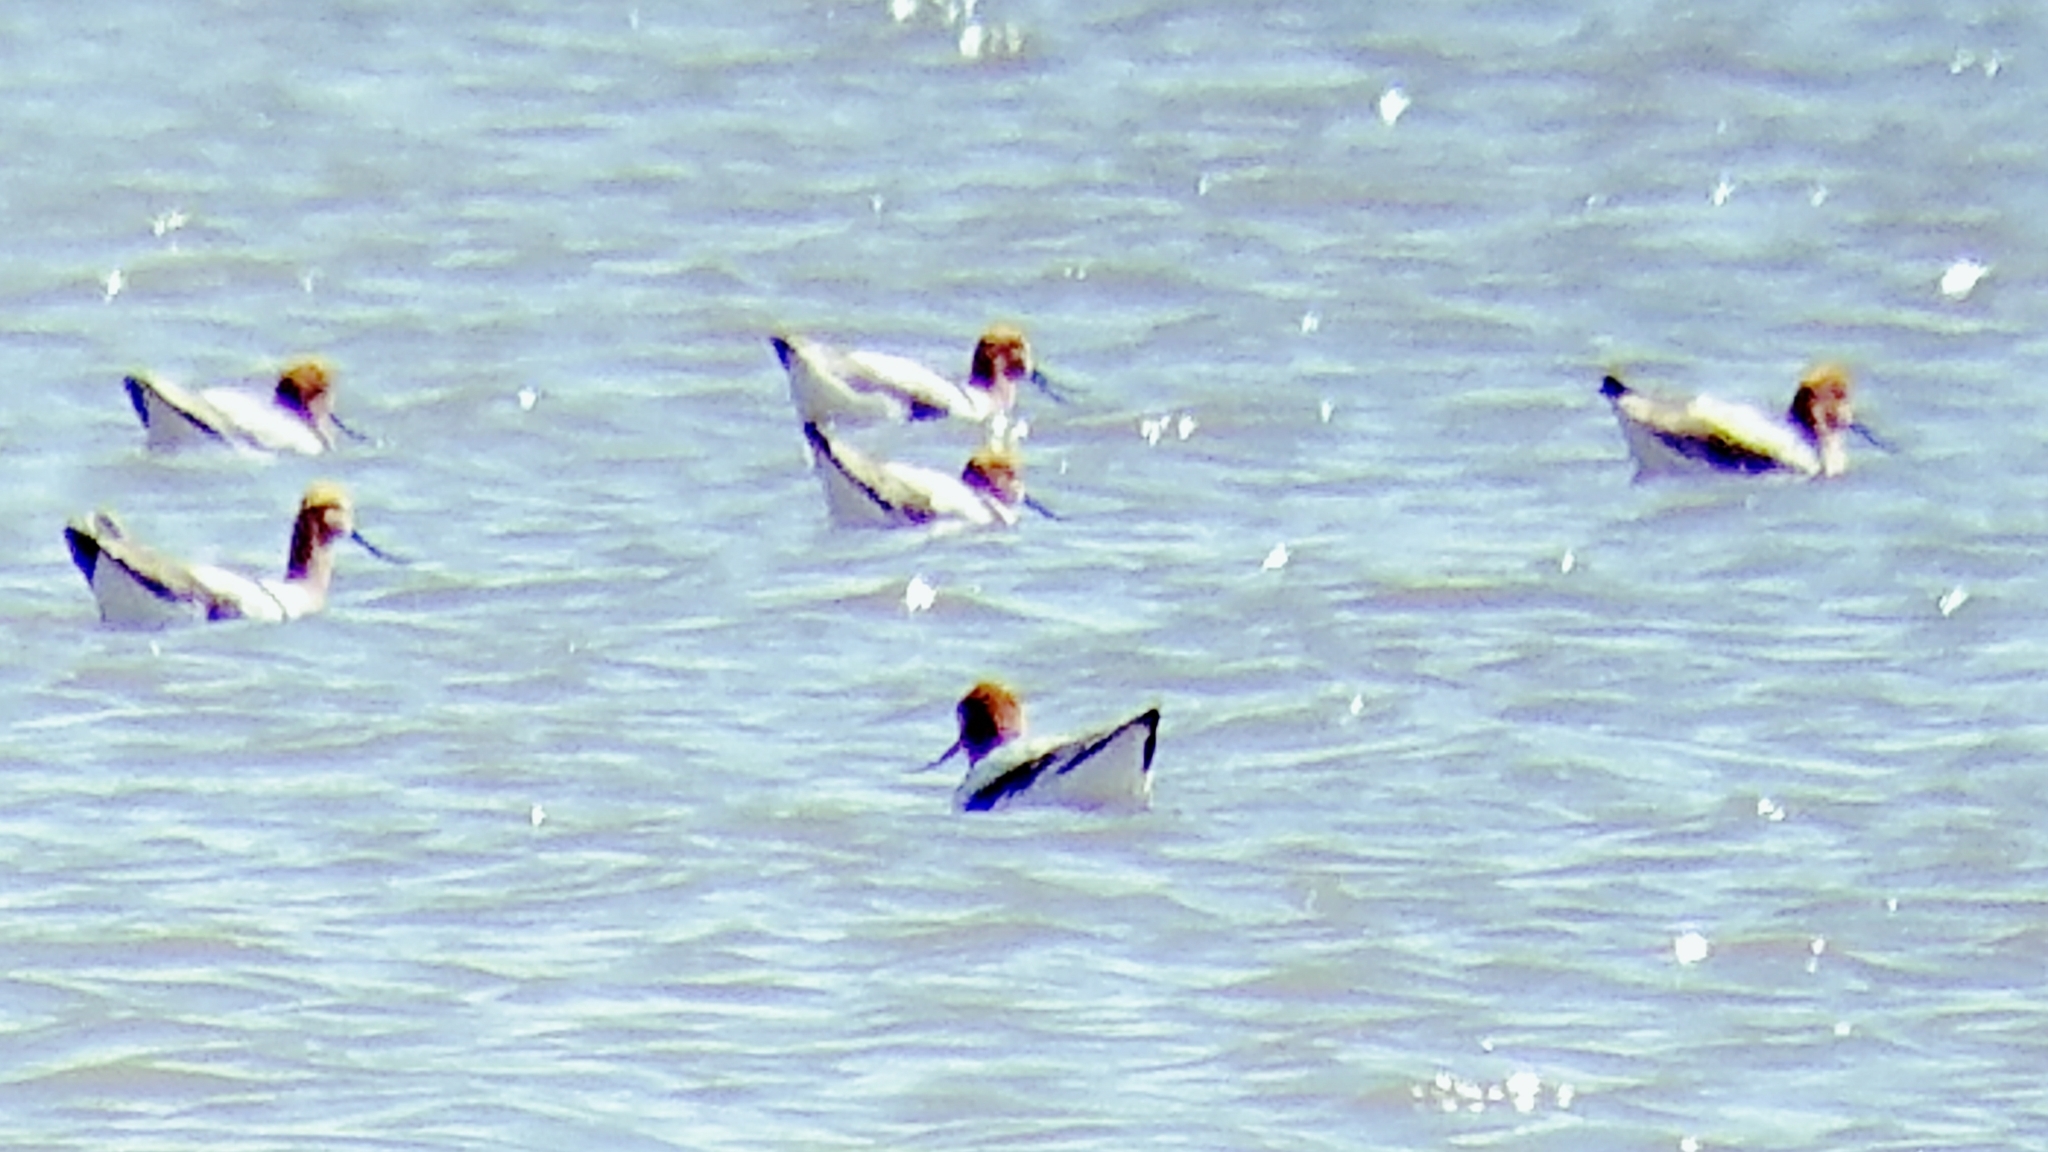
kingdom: Animalia
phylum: Chordata
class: Aves
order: Charadriiformes
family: Recurvirostridae
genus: Recurvirostra
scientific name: Recurvirostra americana
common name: American avocet
